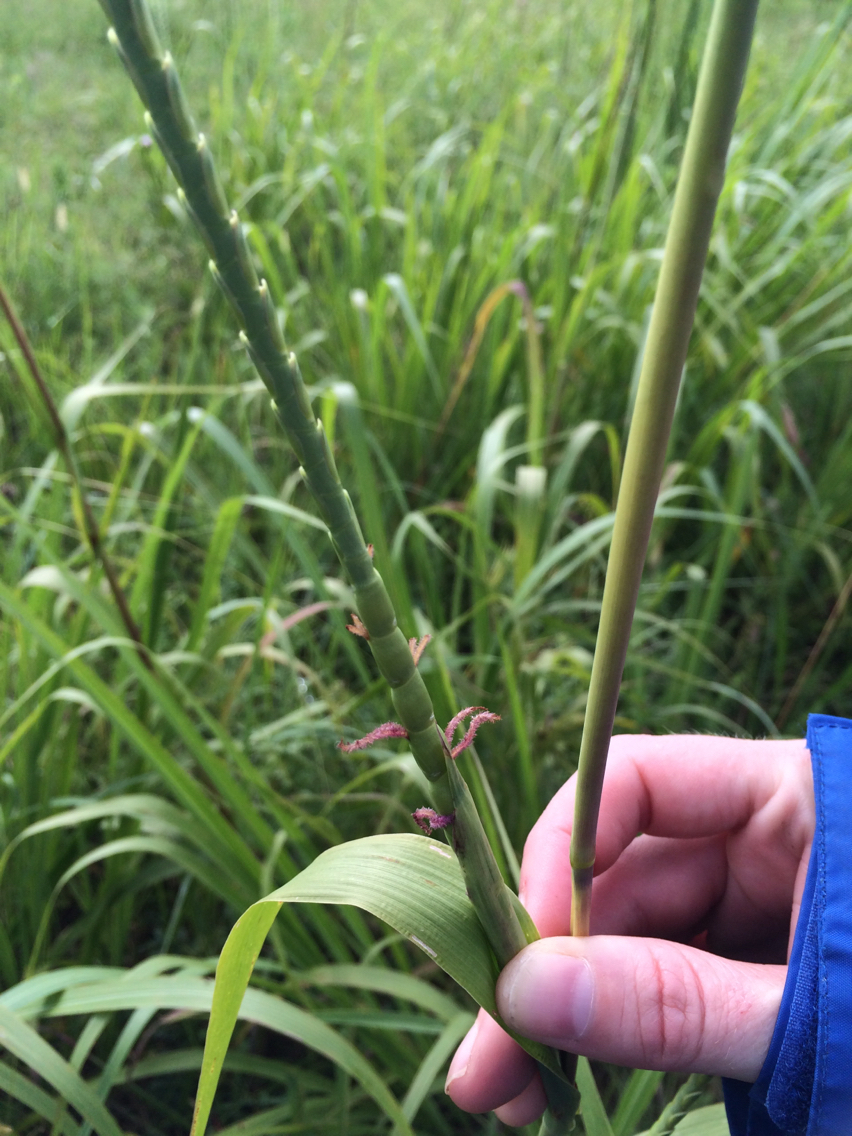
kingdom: Plantae
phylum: Tracheophyta
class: Liliopsida
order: Poales
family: Poaceae
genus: Tripsacum
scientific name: Tripsacum dactyloides
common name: Buffalo-grass
